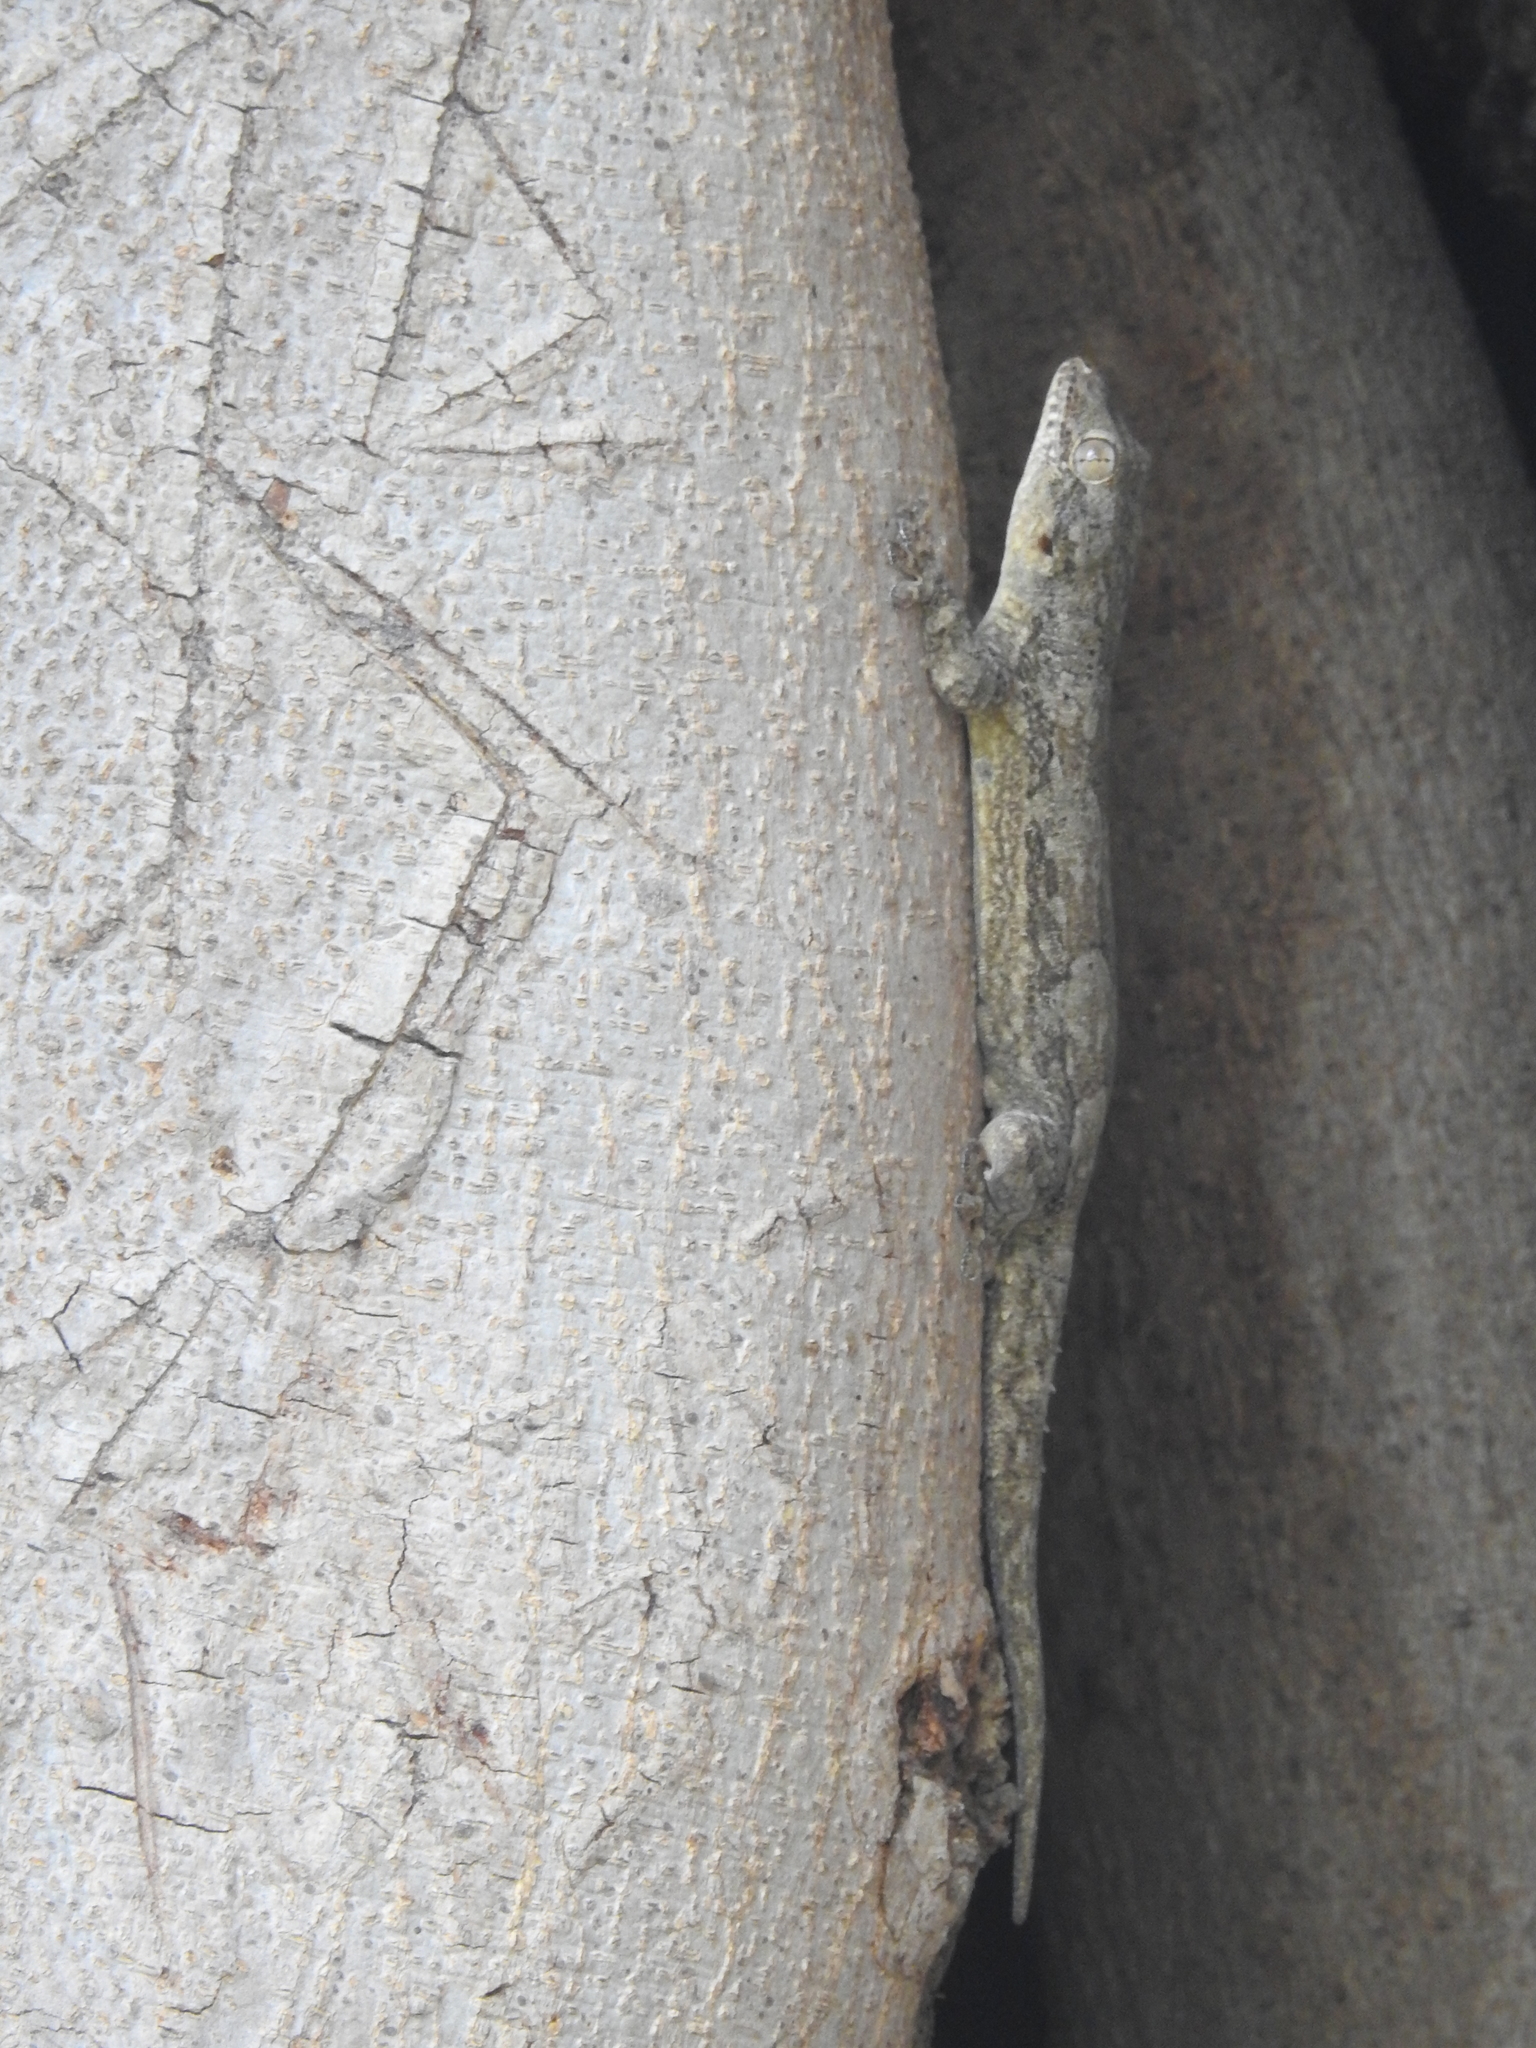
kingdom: Animalia
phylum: Chordata
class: Squamata
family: Gekkonidae
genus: Hemidactylus
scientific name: Hemidactylus leschenaultii
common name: Leschenault's leaf-toed gecko
